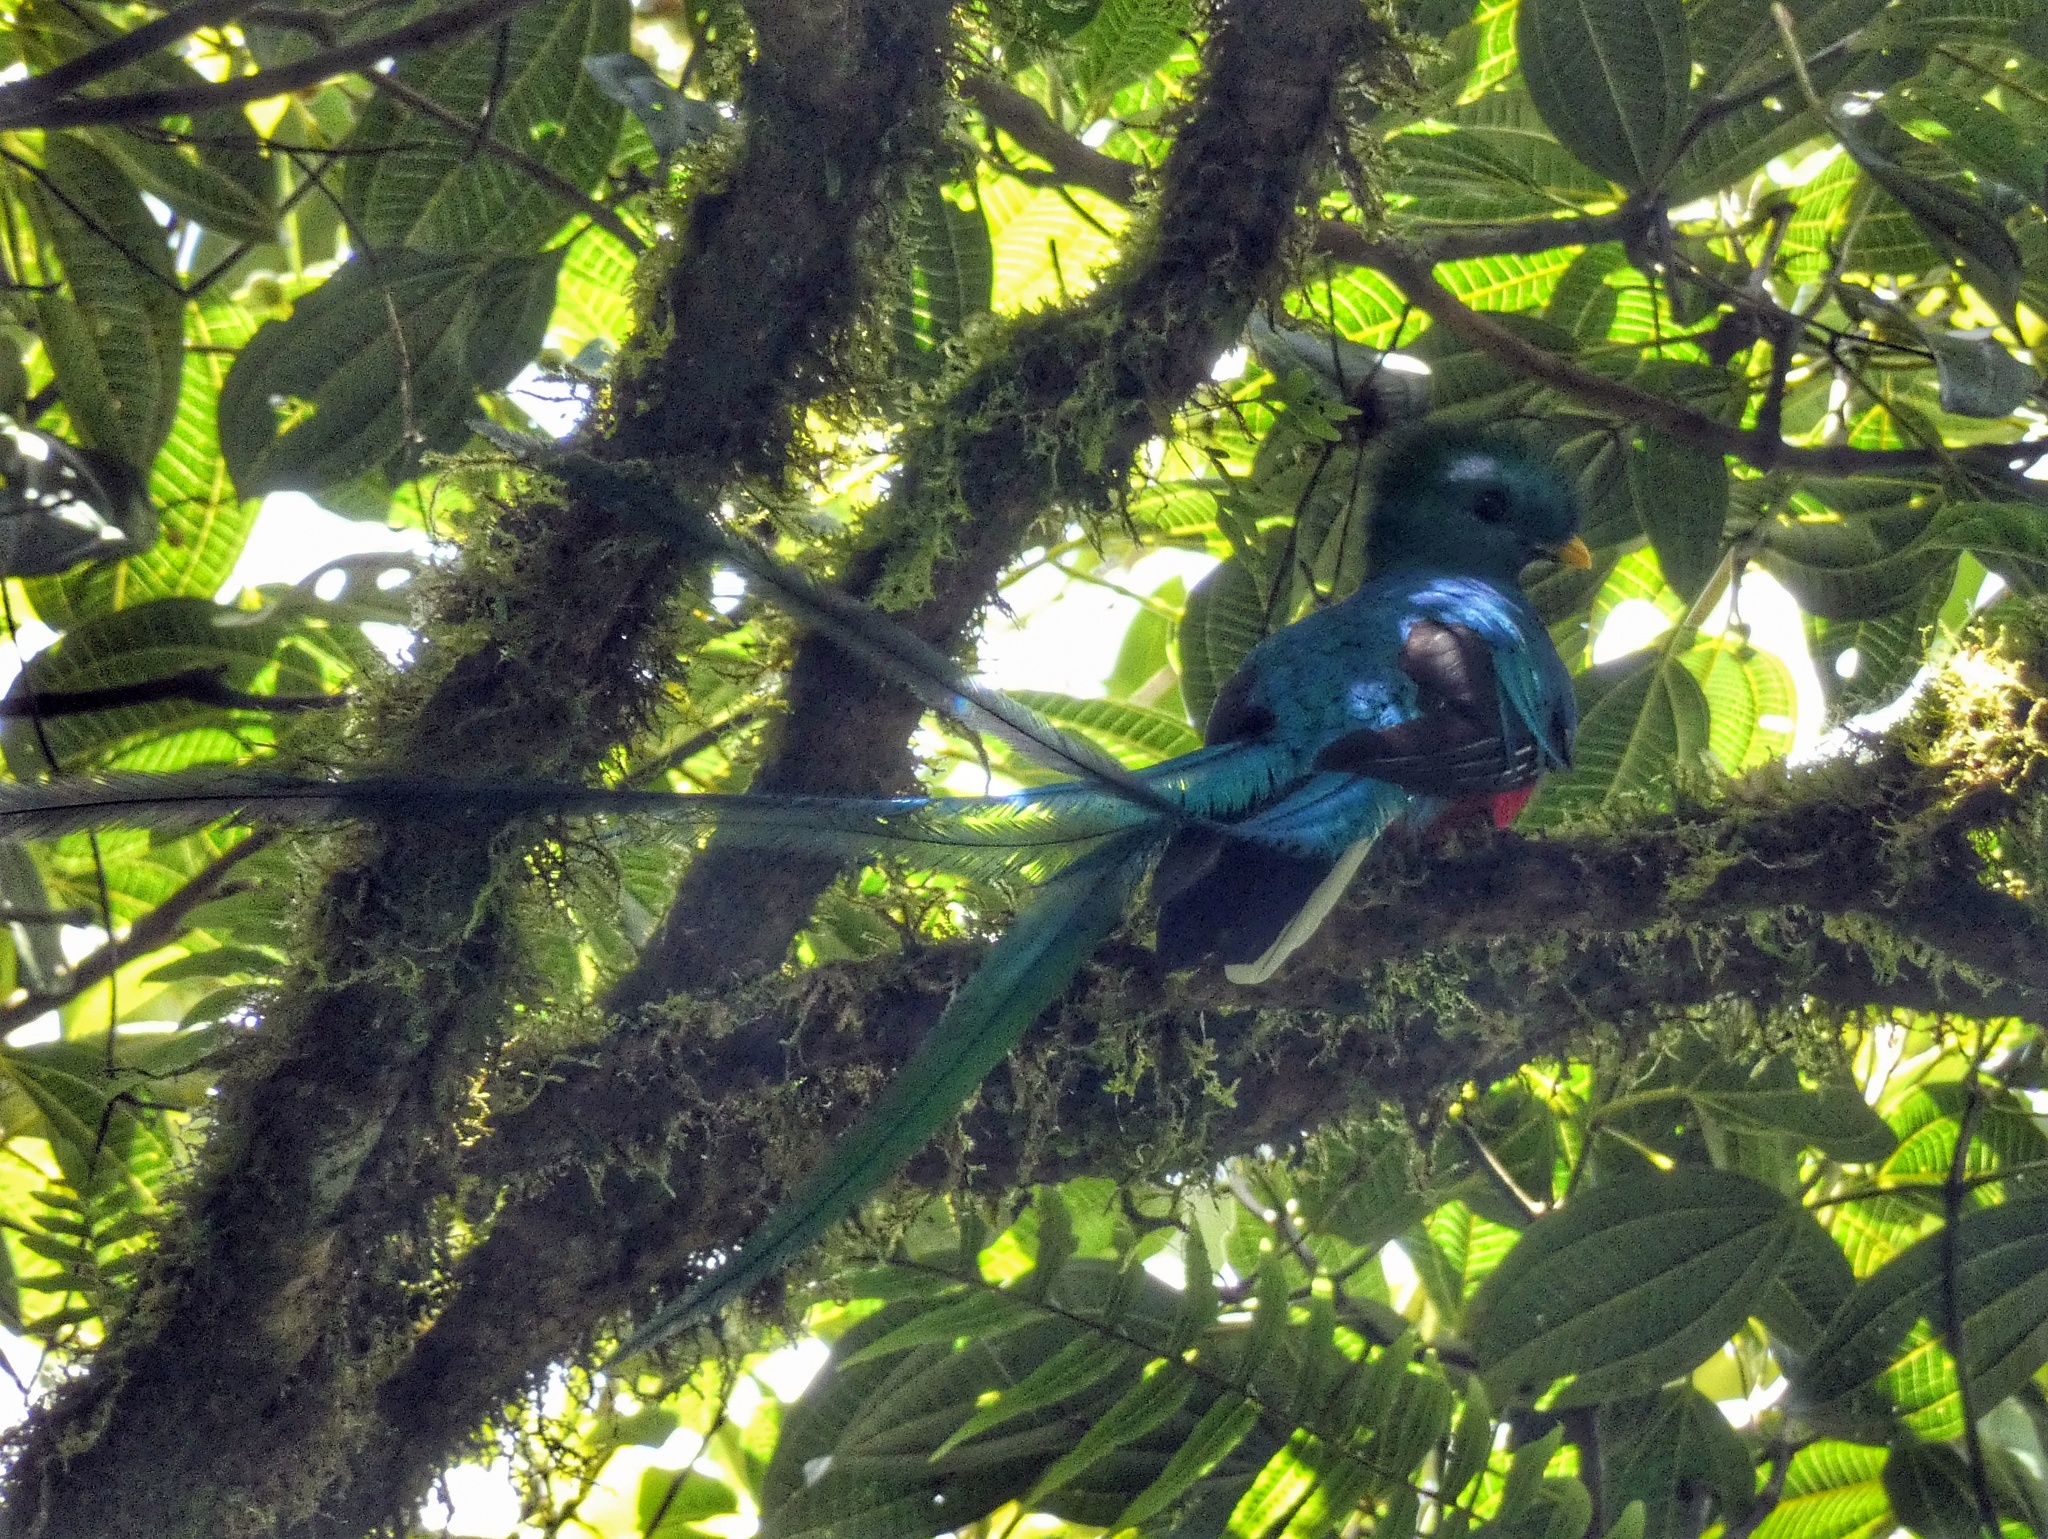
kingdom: Animalia
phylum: Chordata
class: Aves
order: Trogoniformes
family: Trogonidae
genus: Pharomachrus
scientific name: Pharomachrus mocinno
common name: Resplendent quetzal
